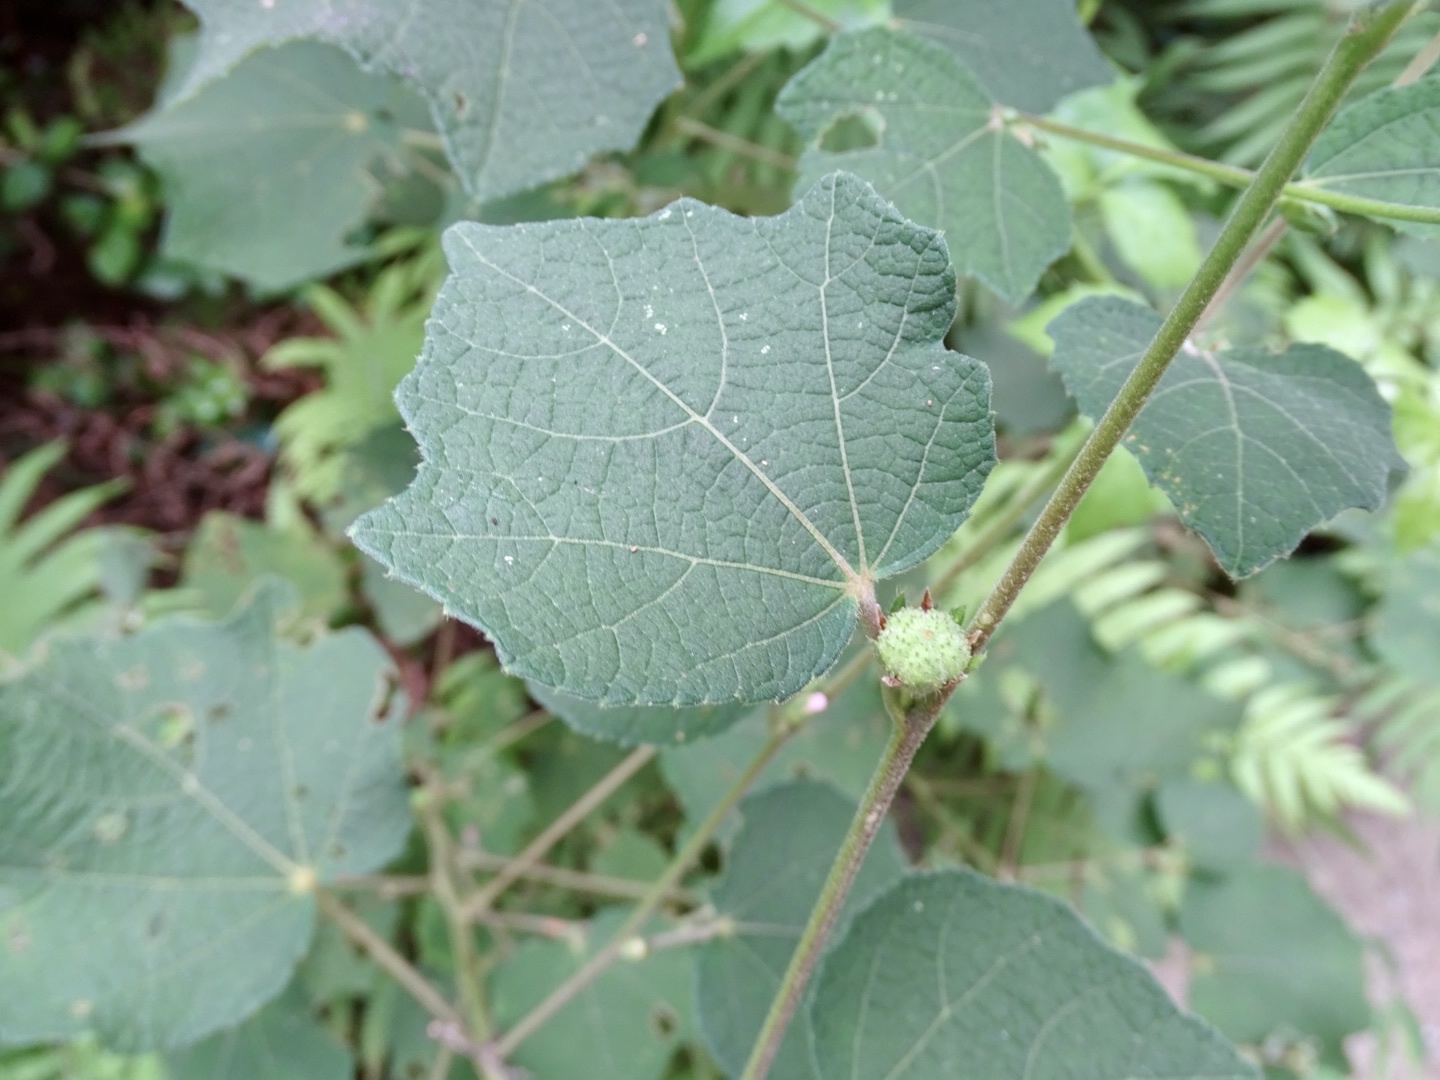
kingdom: Plantae
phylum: Tracheophyta
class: Magnoliopsida
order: Malvales
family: Malvaceae
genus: Urena
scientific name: Urena lobata
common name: Caesarweed
